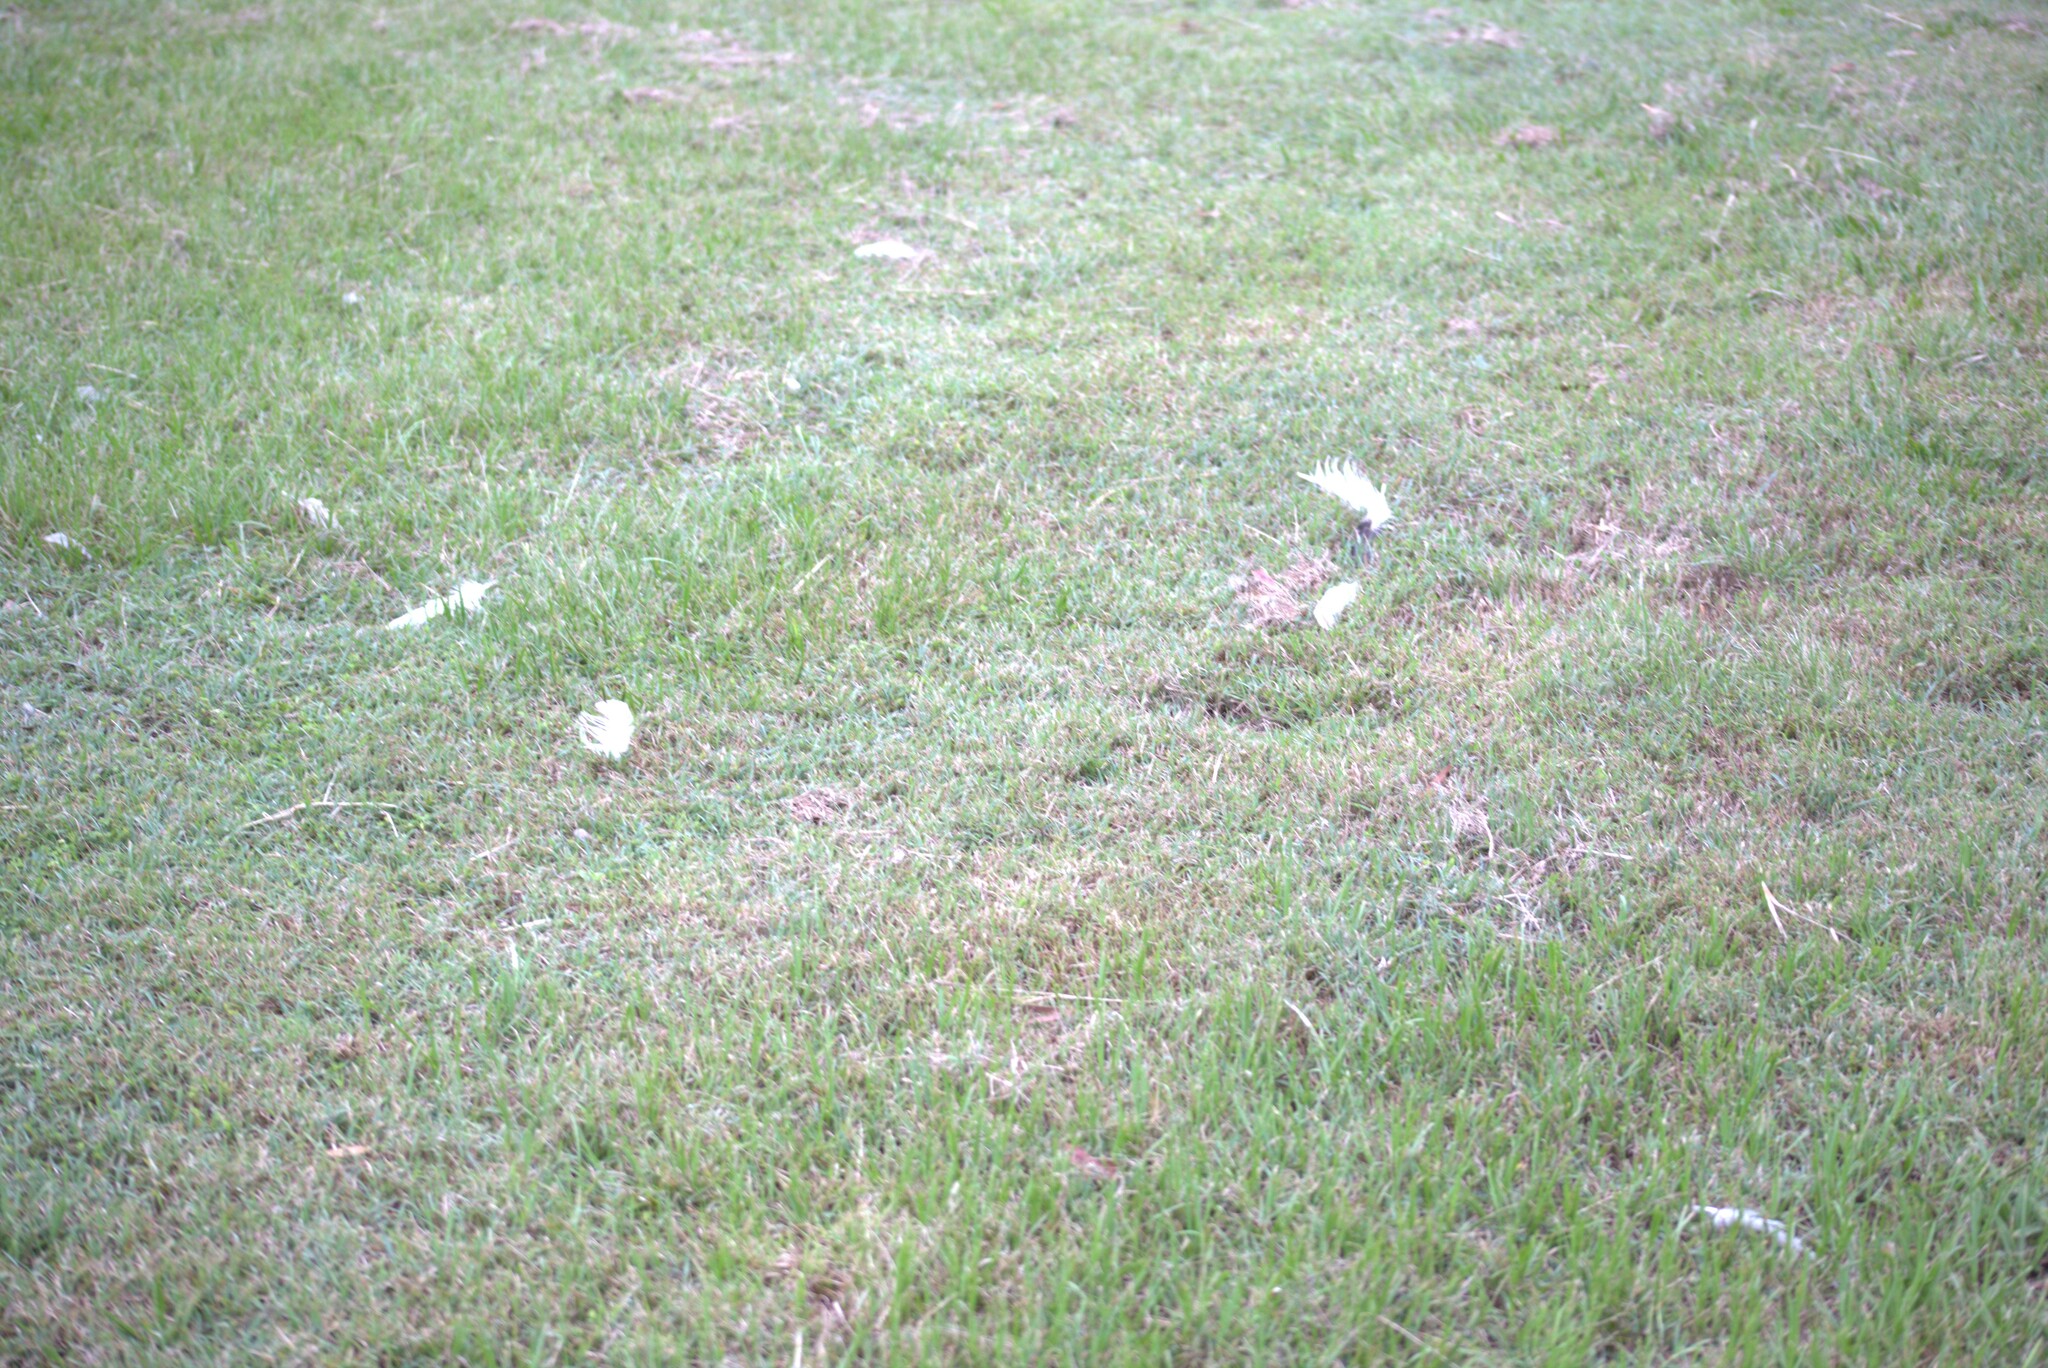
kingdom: Animalia
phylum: Chordata
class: Aves
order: Pelecaniformes
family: Threskiornithidae
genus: Threskiornis
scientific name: Threskiornis molucca
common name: Australian white ibis
